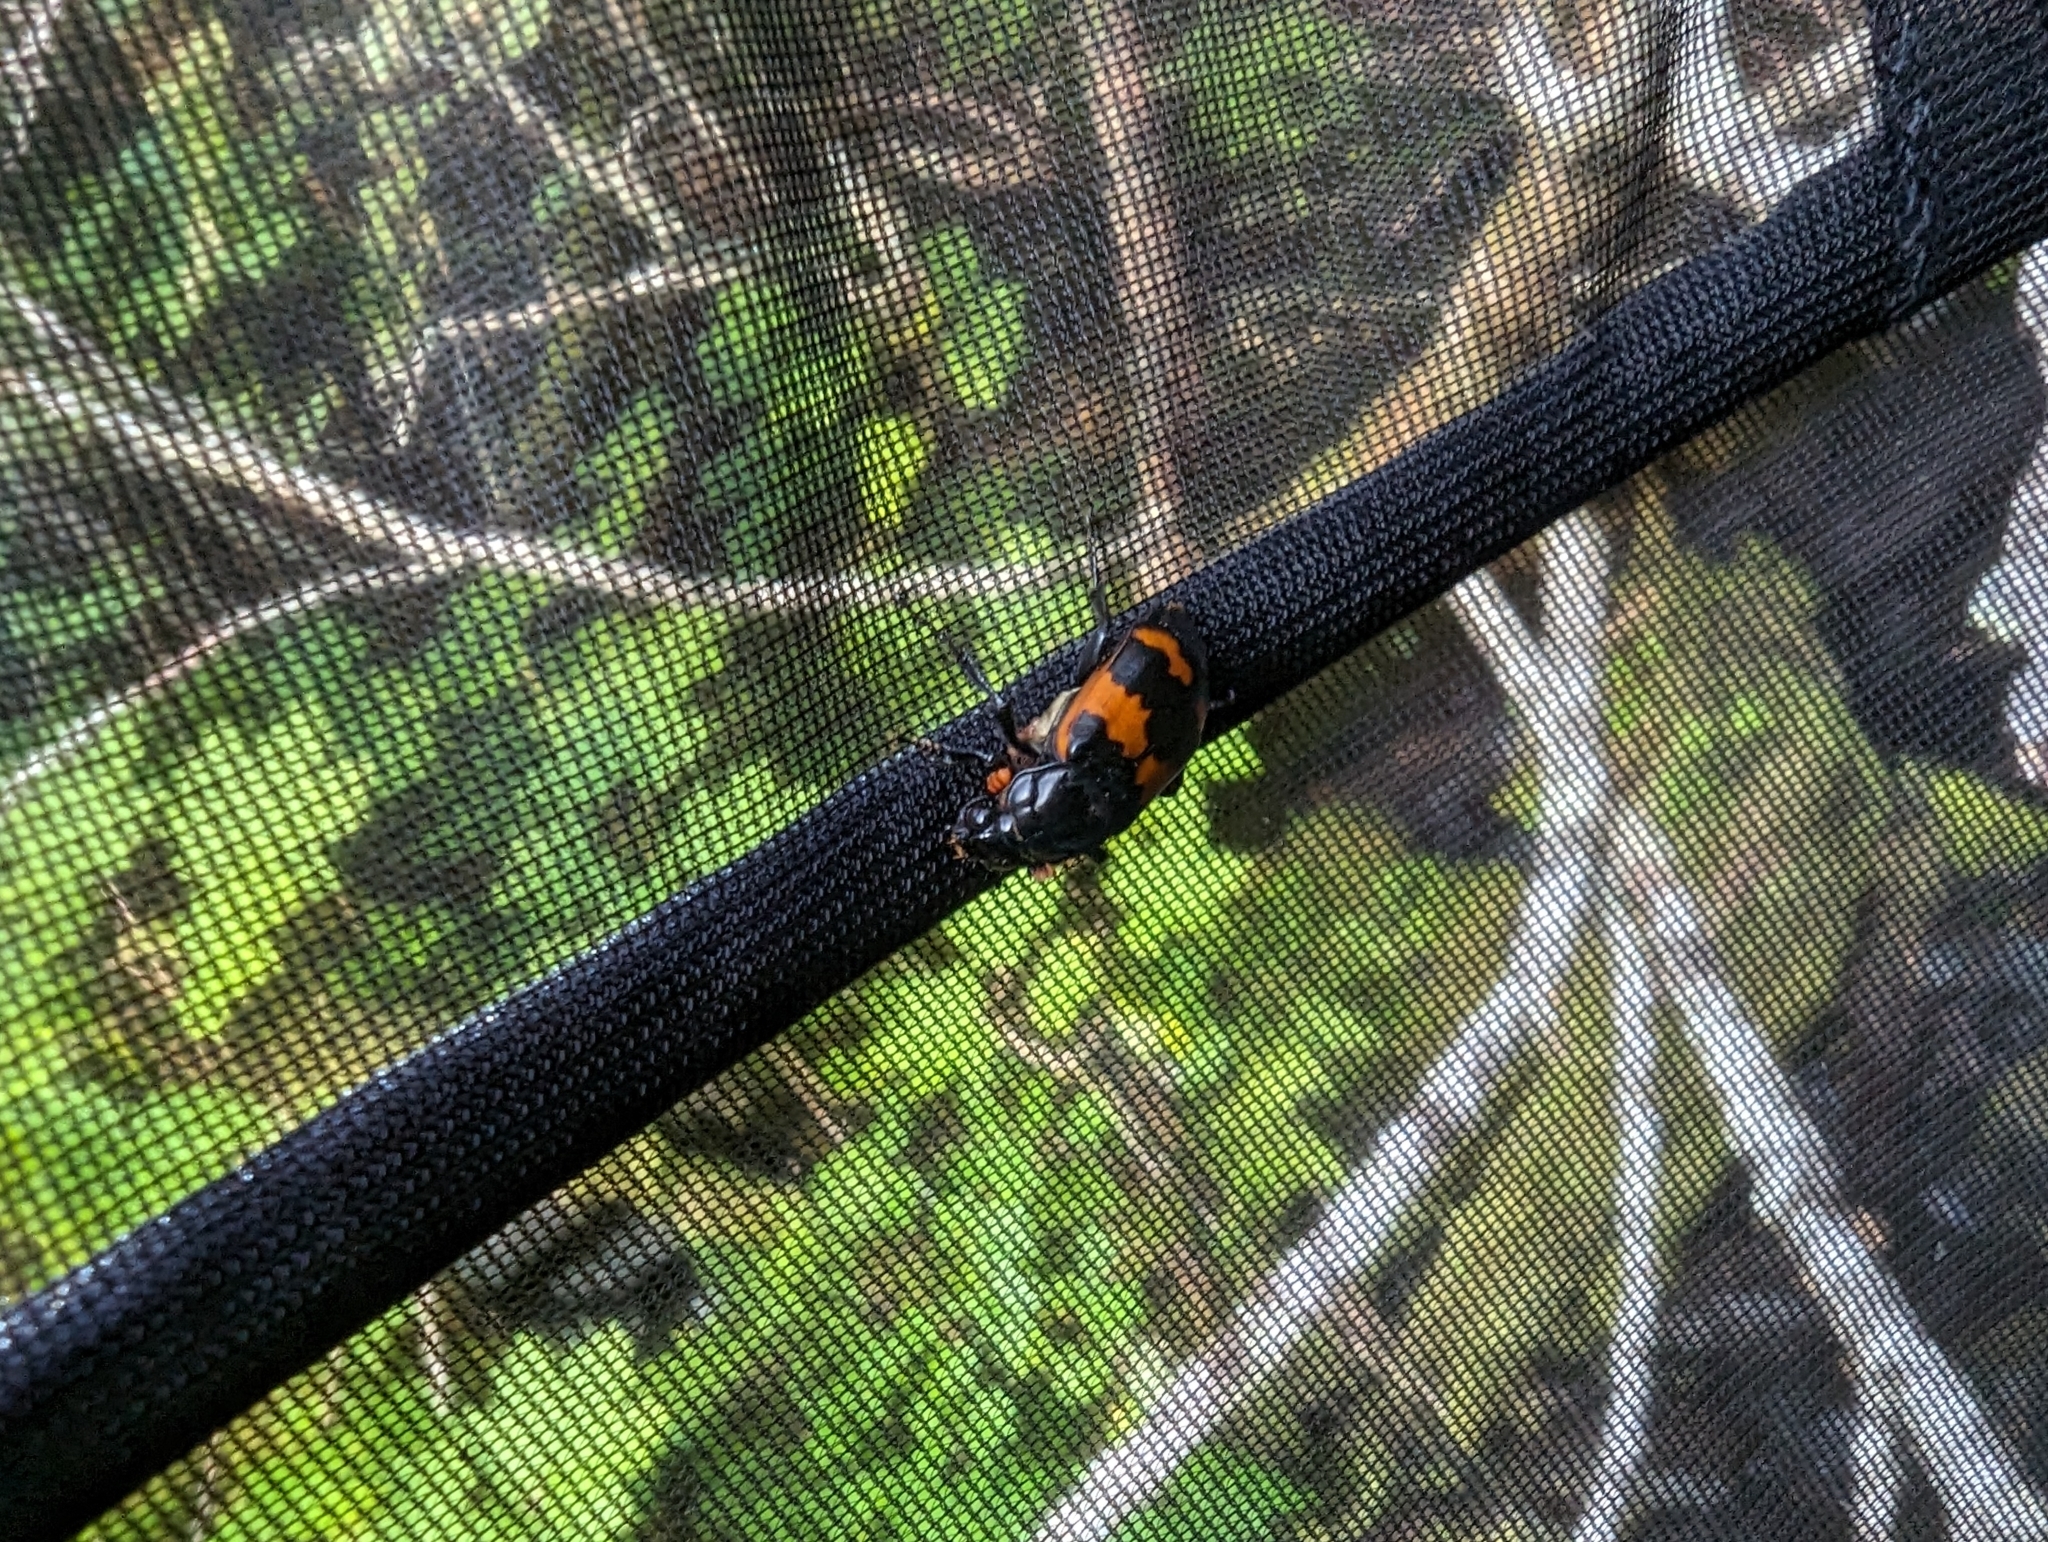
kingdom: Animalia
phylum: Arthropoda
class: Insecta
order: Coleoptera
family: Staphylinidae
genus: Nicrophorus
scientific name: Nicrophorus investigator
